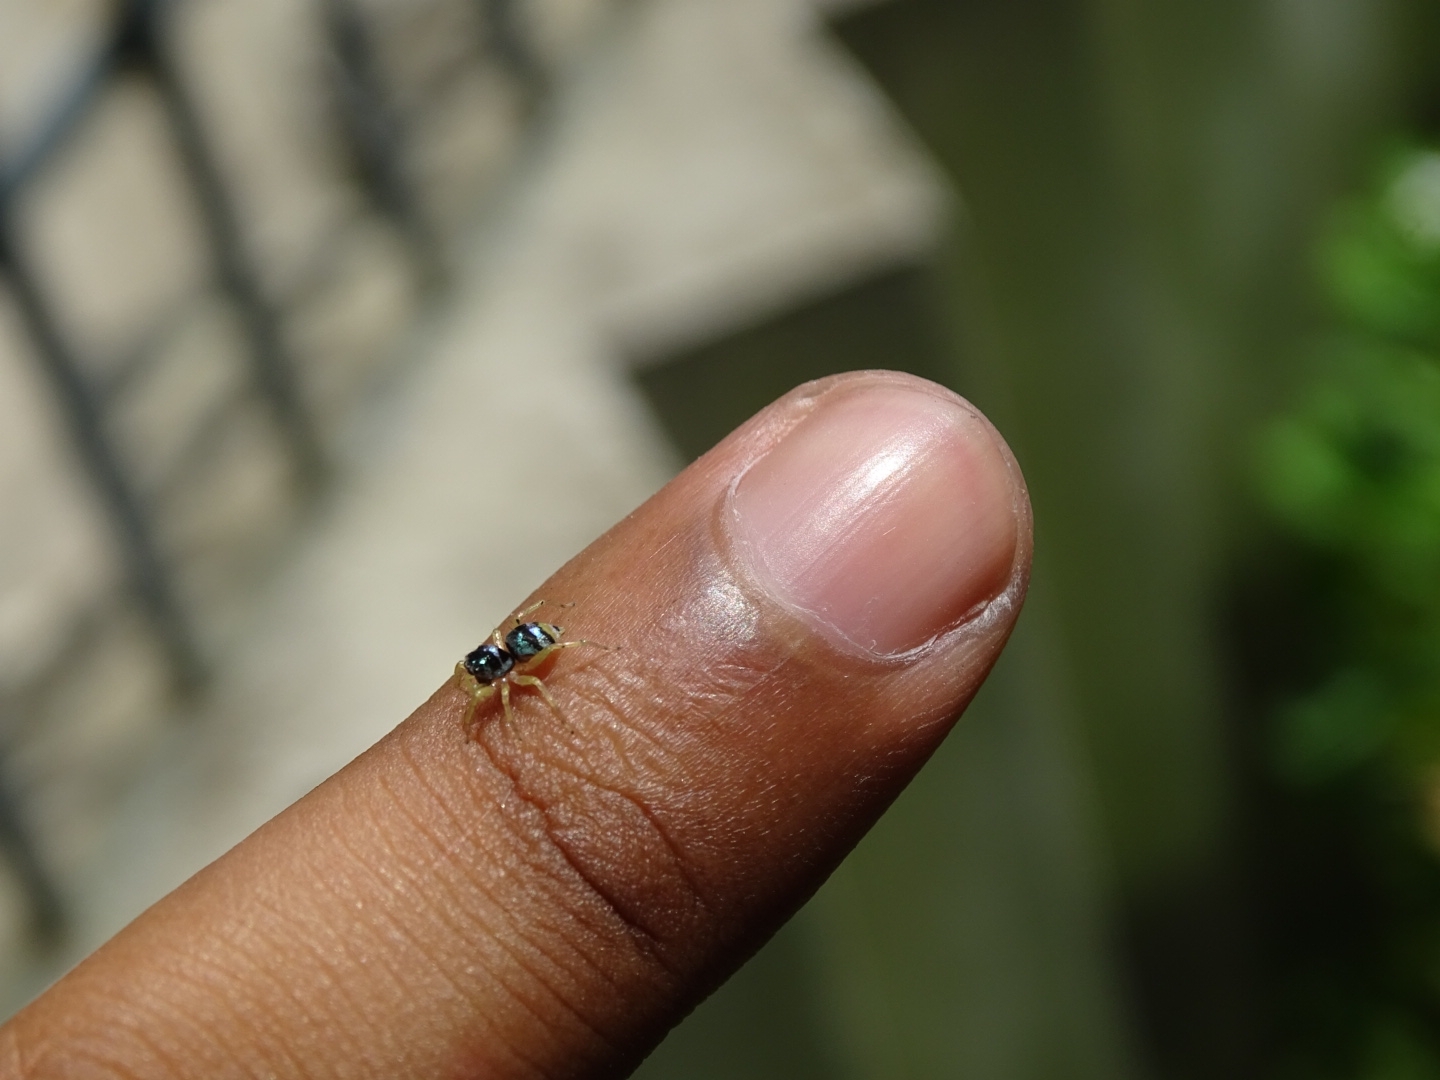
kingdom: Animalia
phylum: Arthropoda
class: Arachnida
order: Araneae
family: Salticidae
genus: Phintella
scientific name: Phintella vittata
